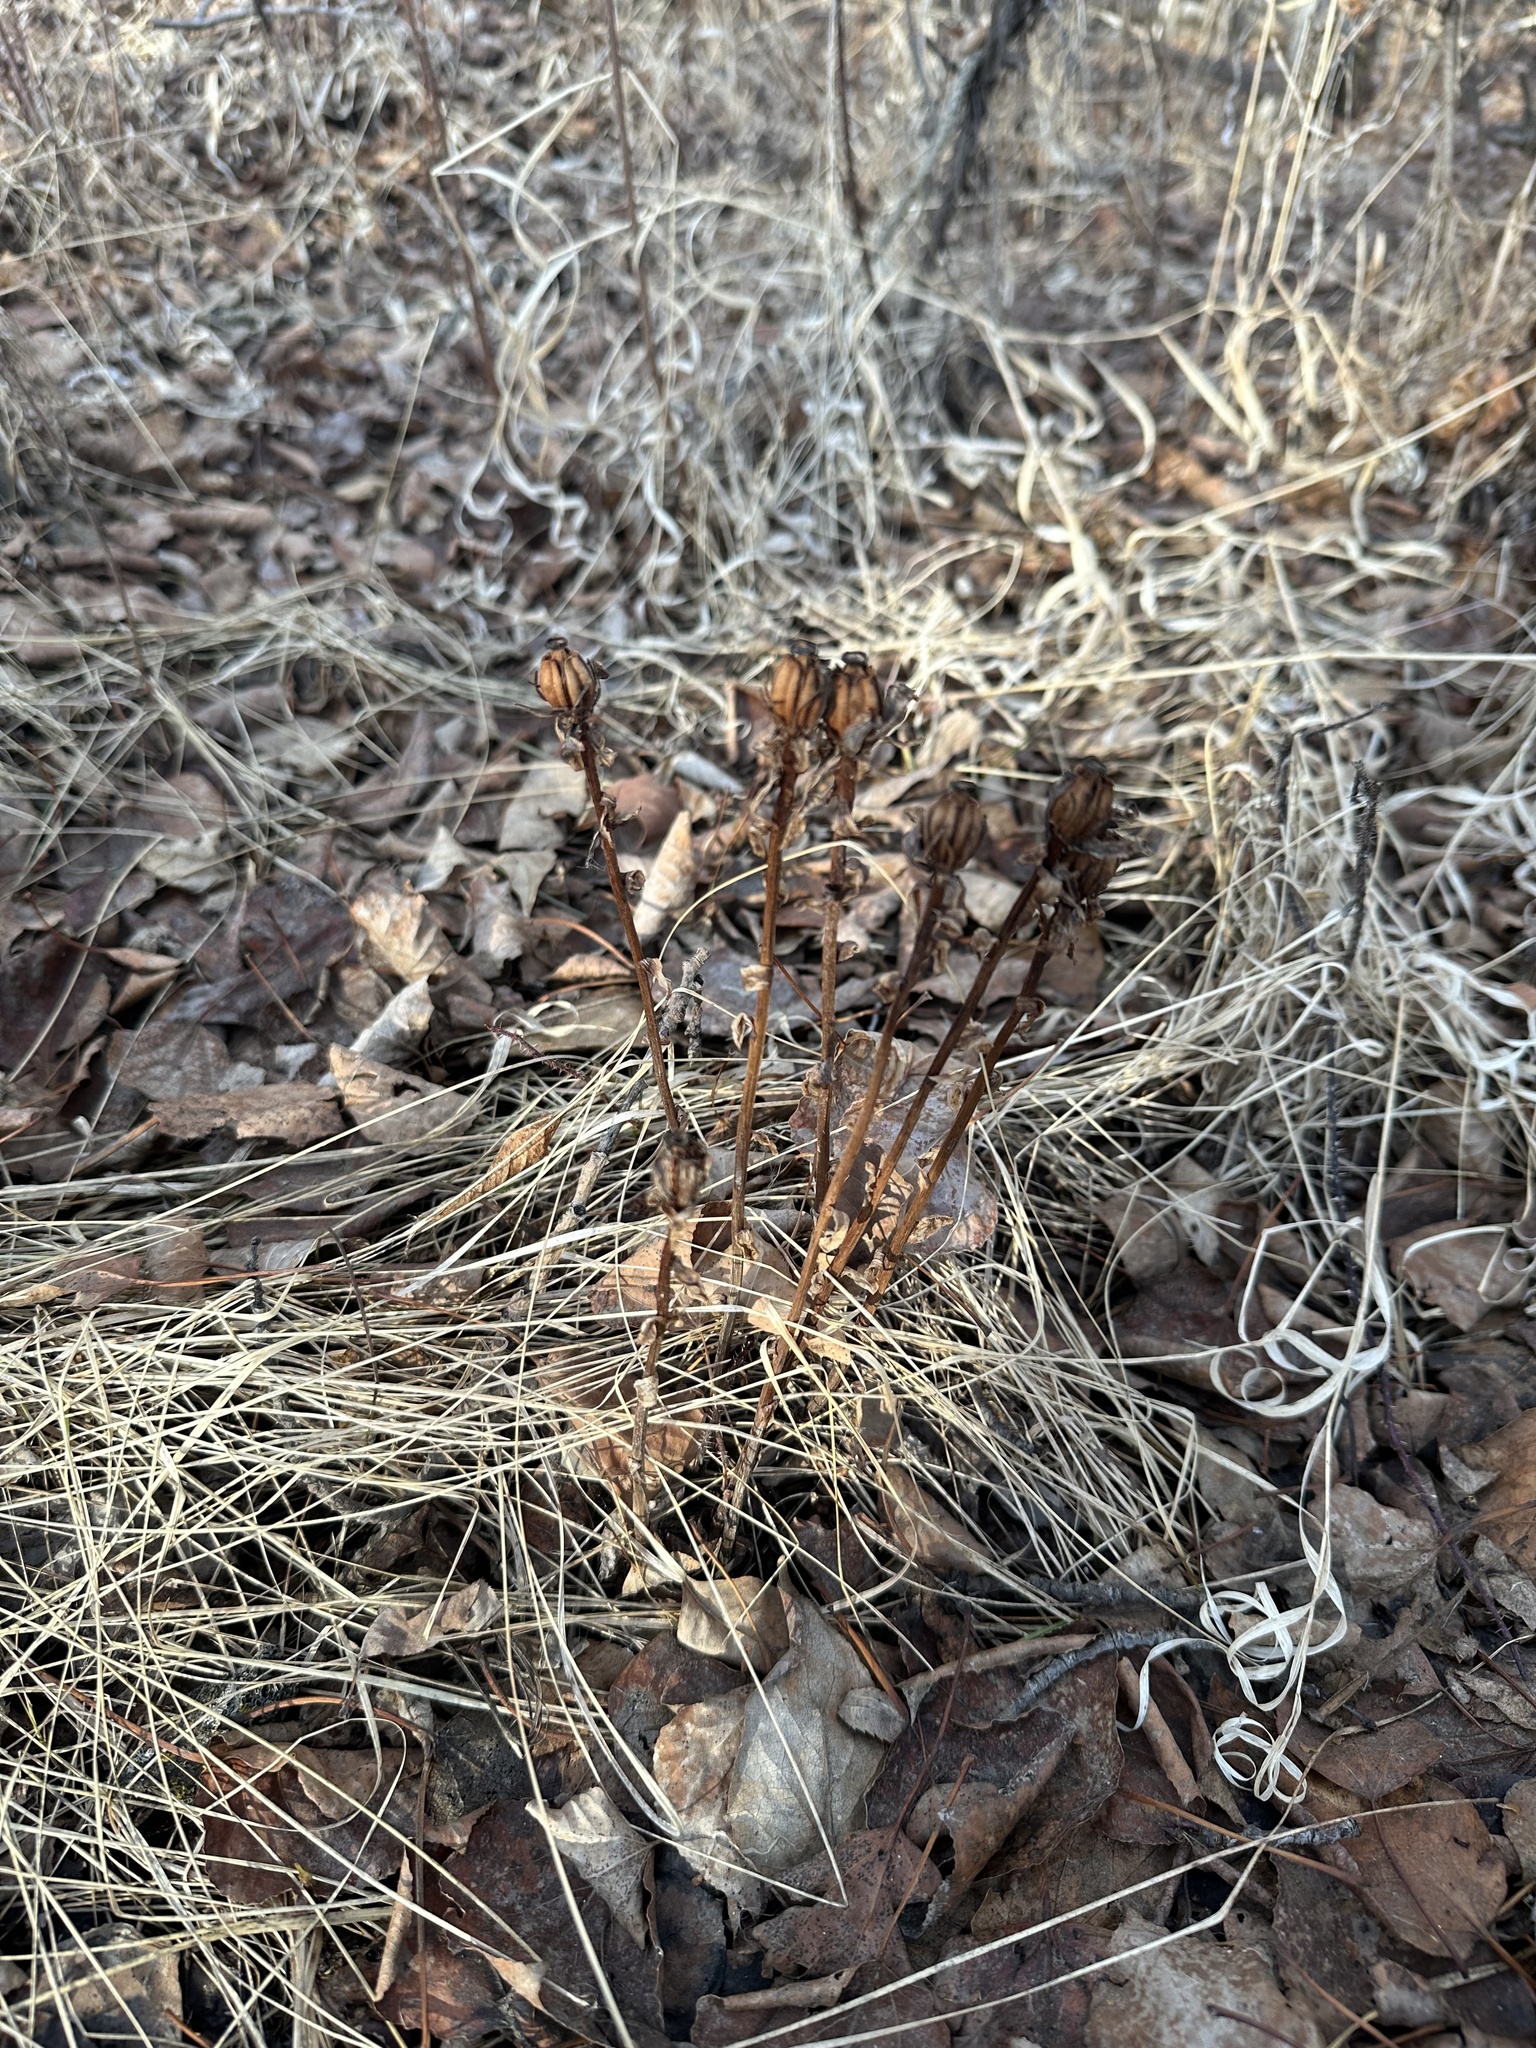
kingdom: Plantae
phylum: Tracheophyta
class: Magnoliopsida
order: Ericales
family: Ericaceae
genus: Monotropa
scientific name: Monotropa uniflora
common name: Convulsion root
